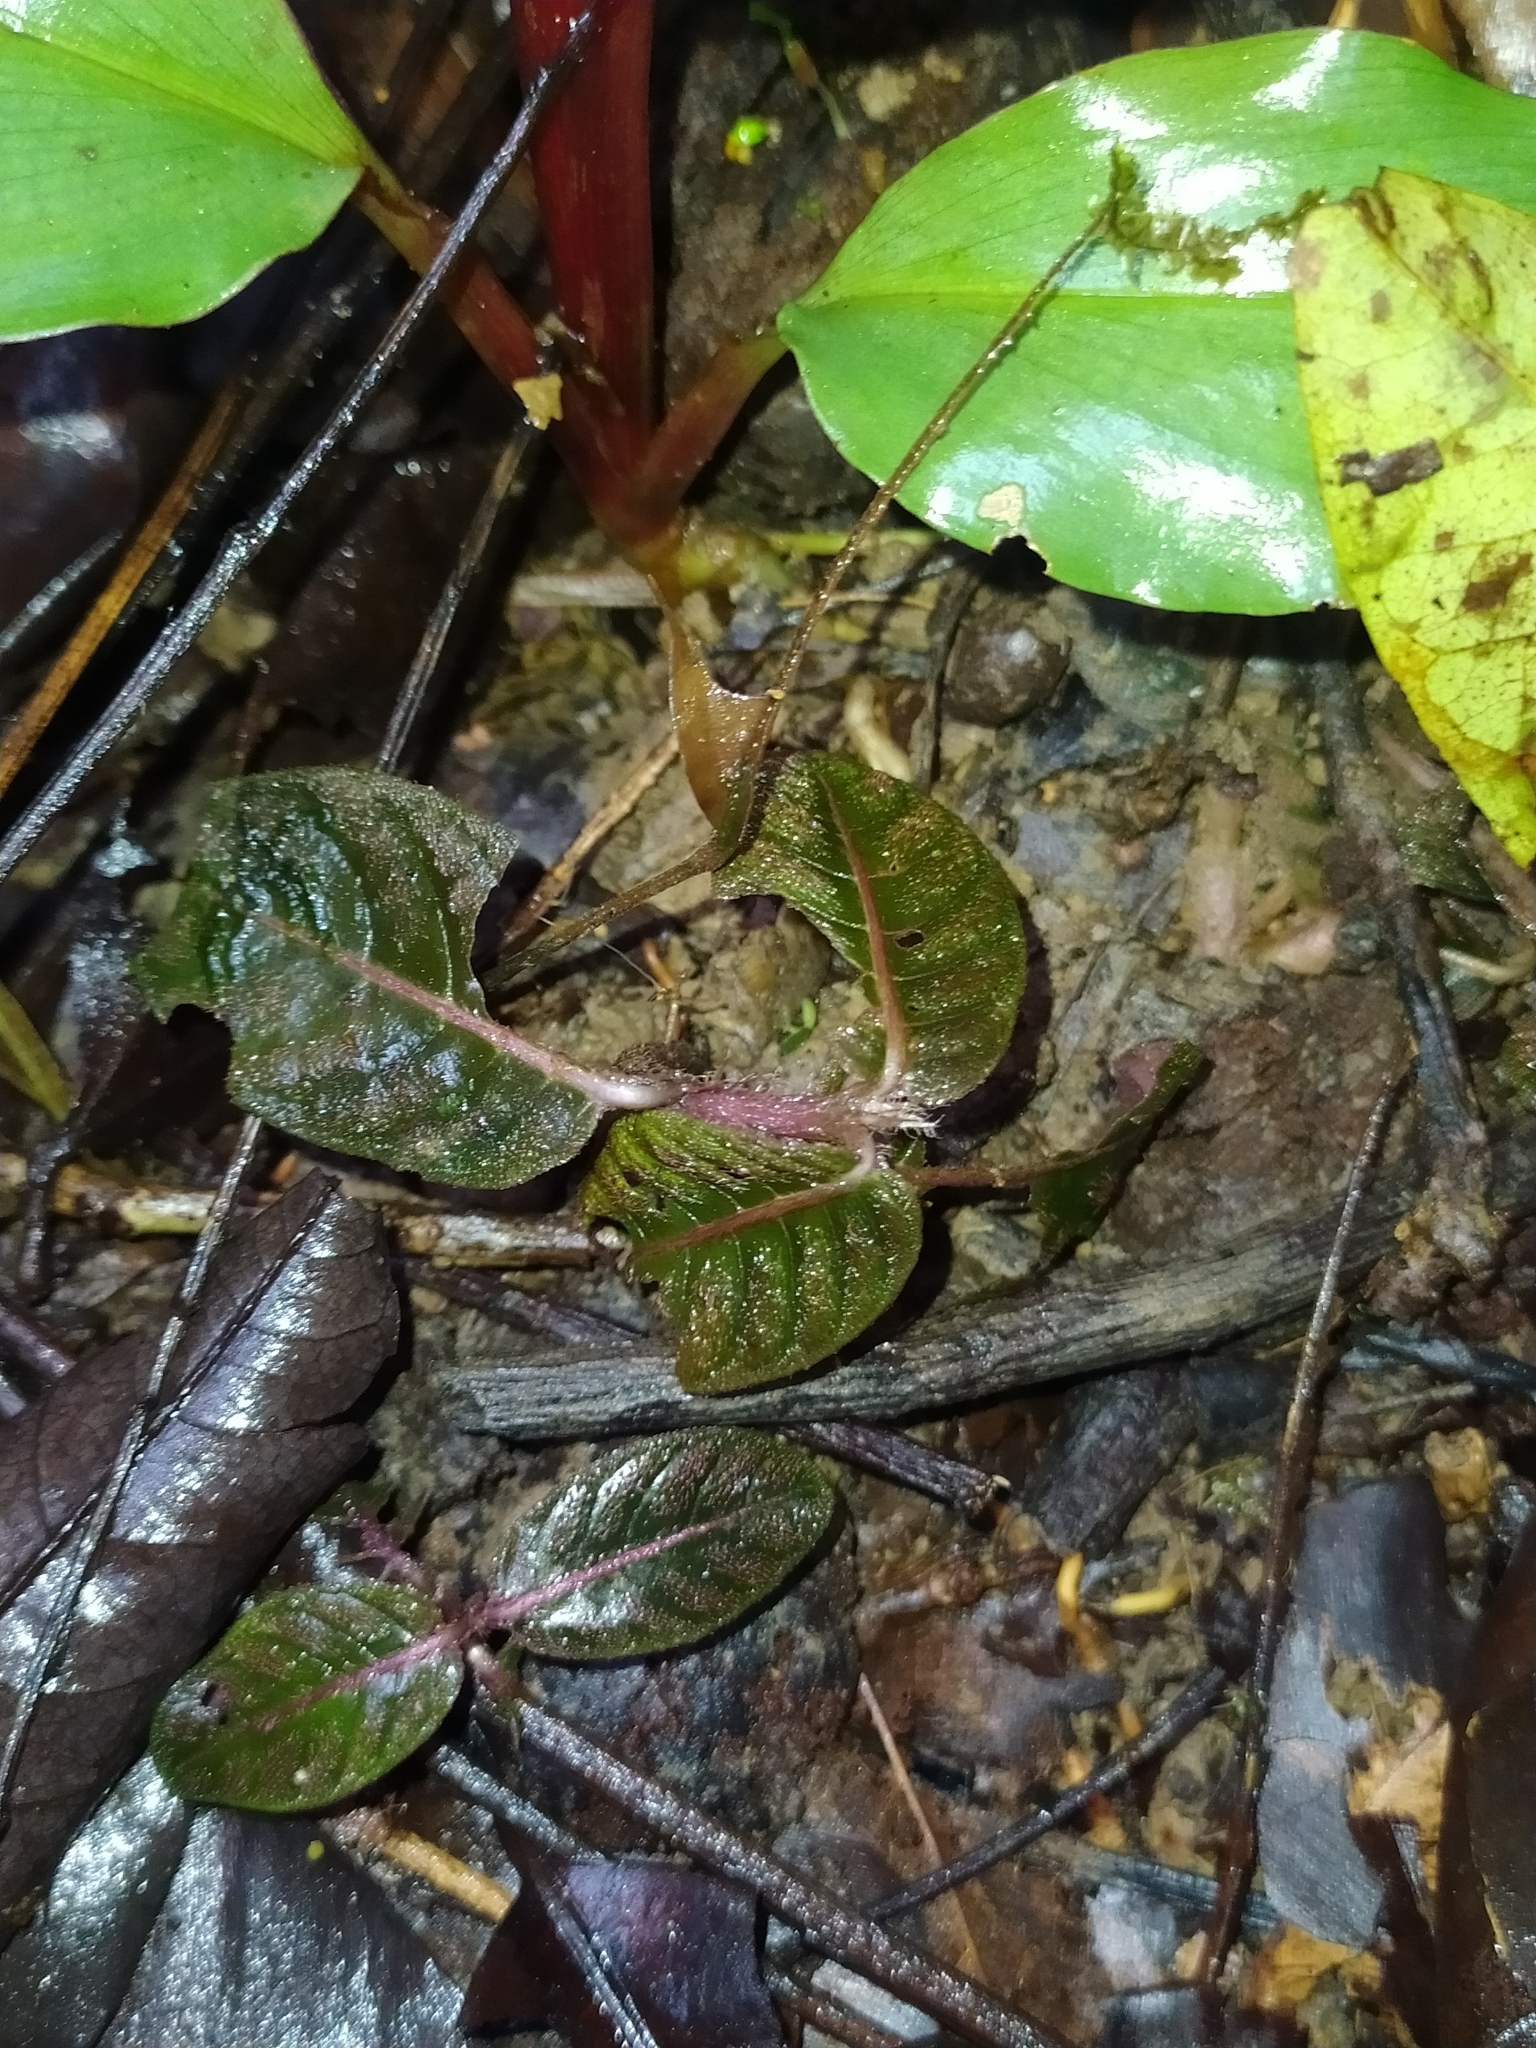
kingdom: Plantae
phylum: Tracheophyta
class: Magnoliopsida
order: Gentianales
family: Rubiaceae
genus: Palicourea
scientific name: Palicourea alba
